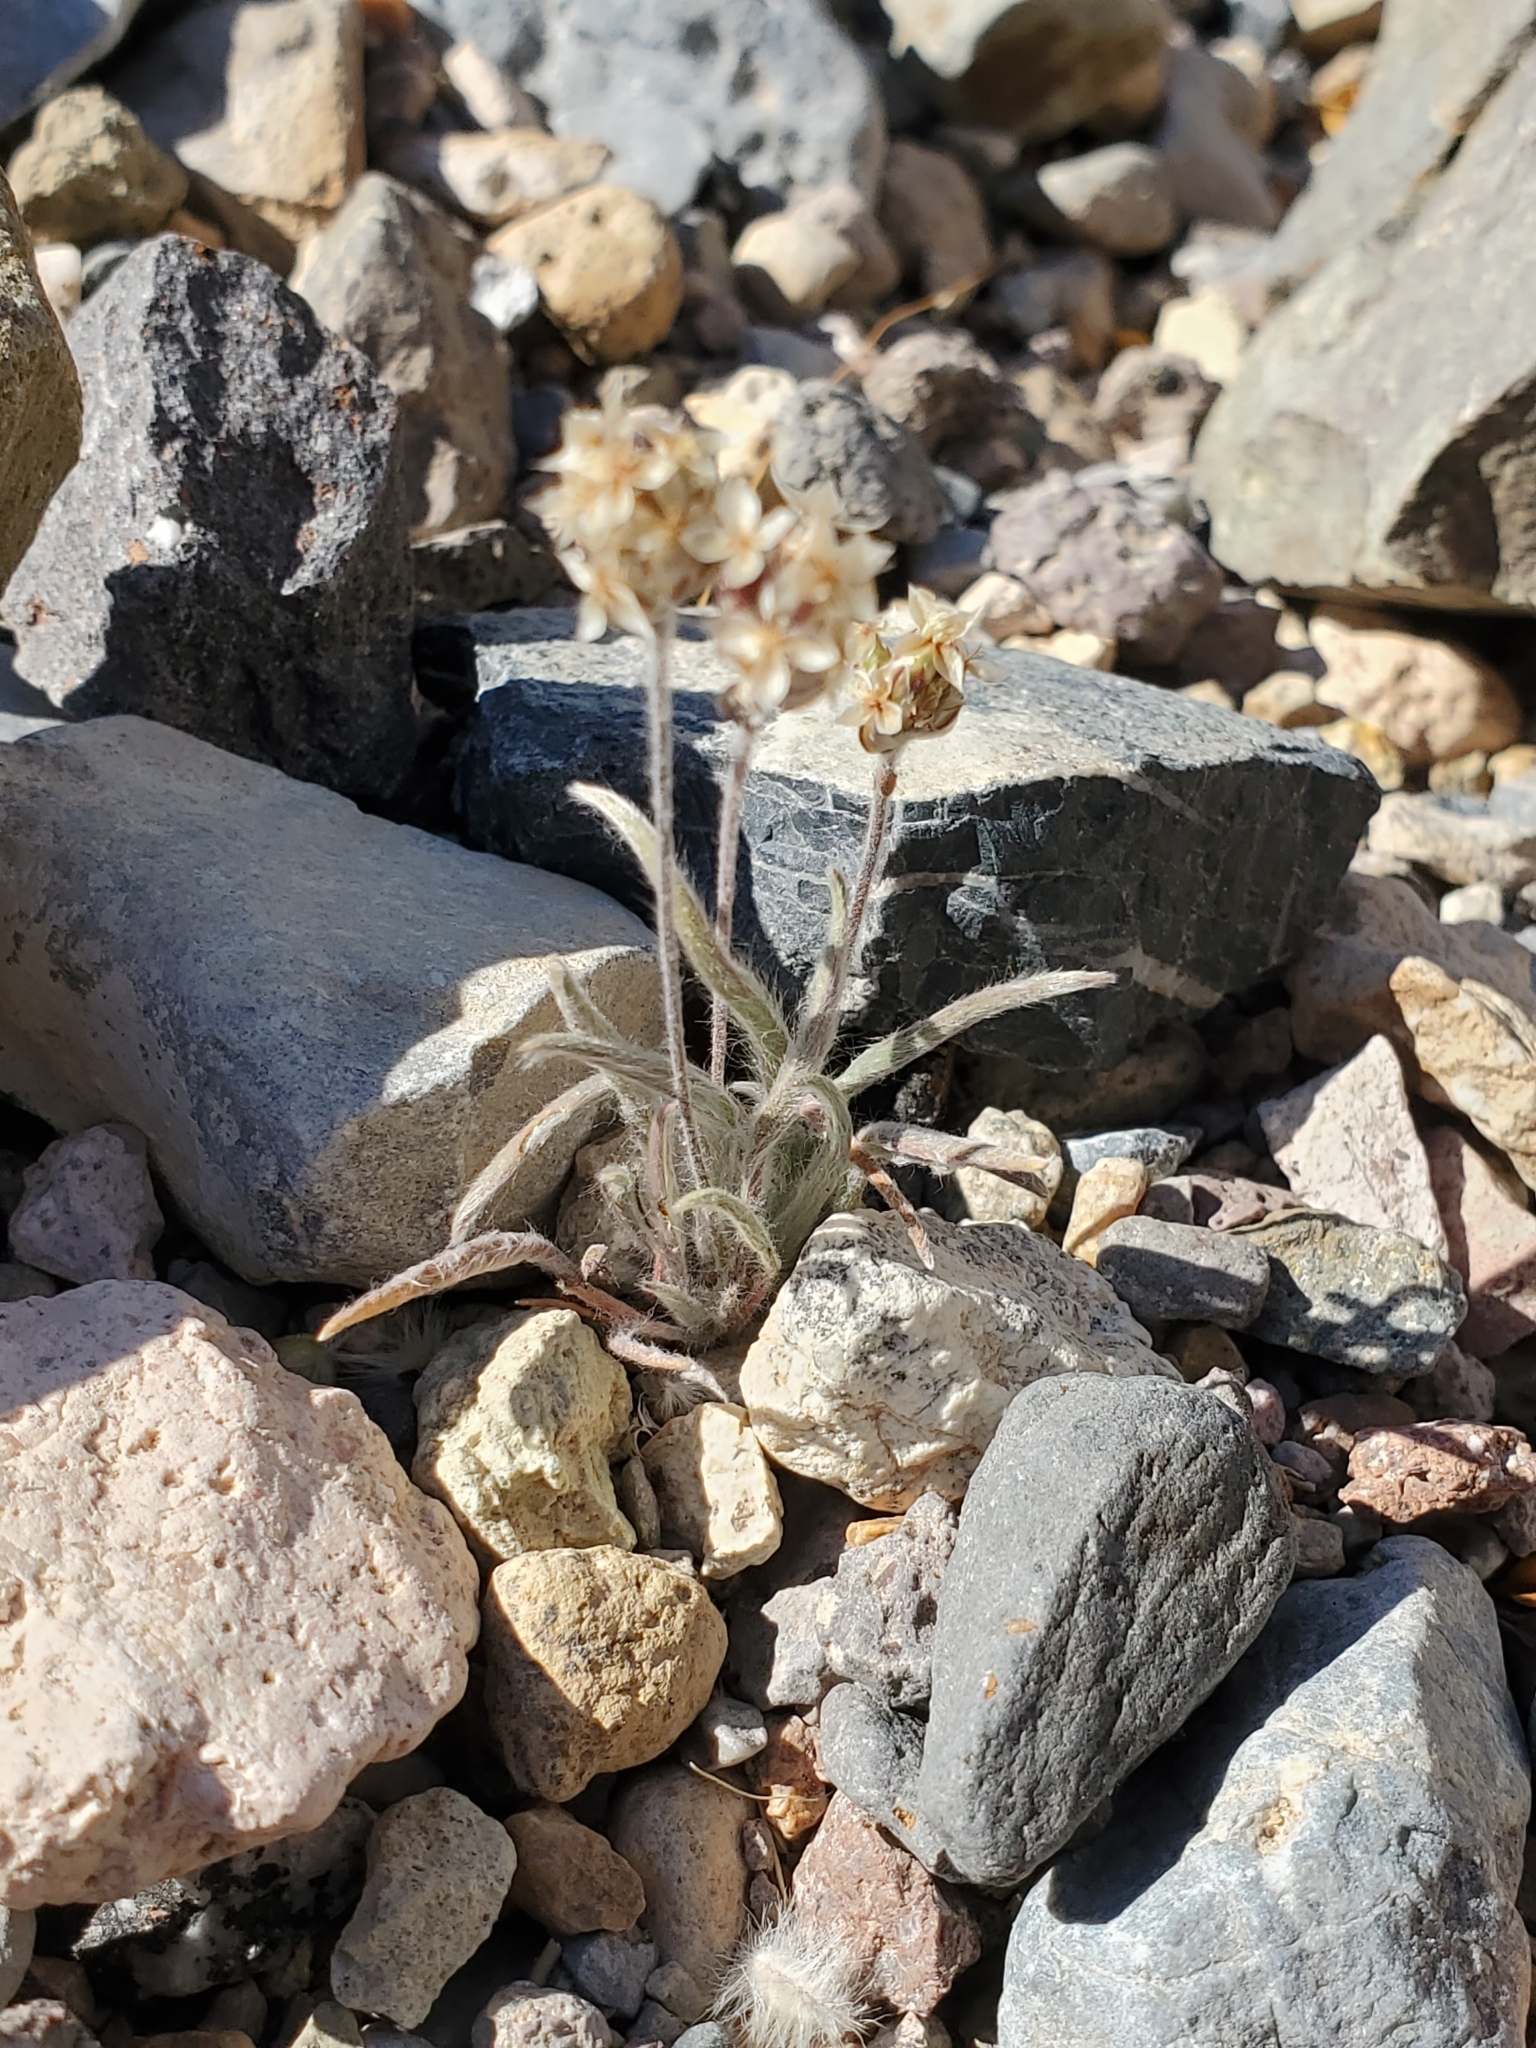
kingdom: Plantae
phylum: Tracheophyta
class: Magnoliopsida
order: Lamiales
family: Plantaginaceae
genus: Plantago
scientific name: Plantago ovata
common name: Blond plantain
